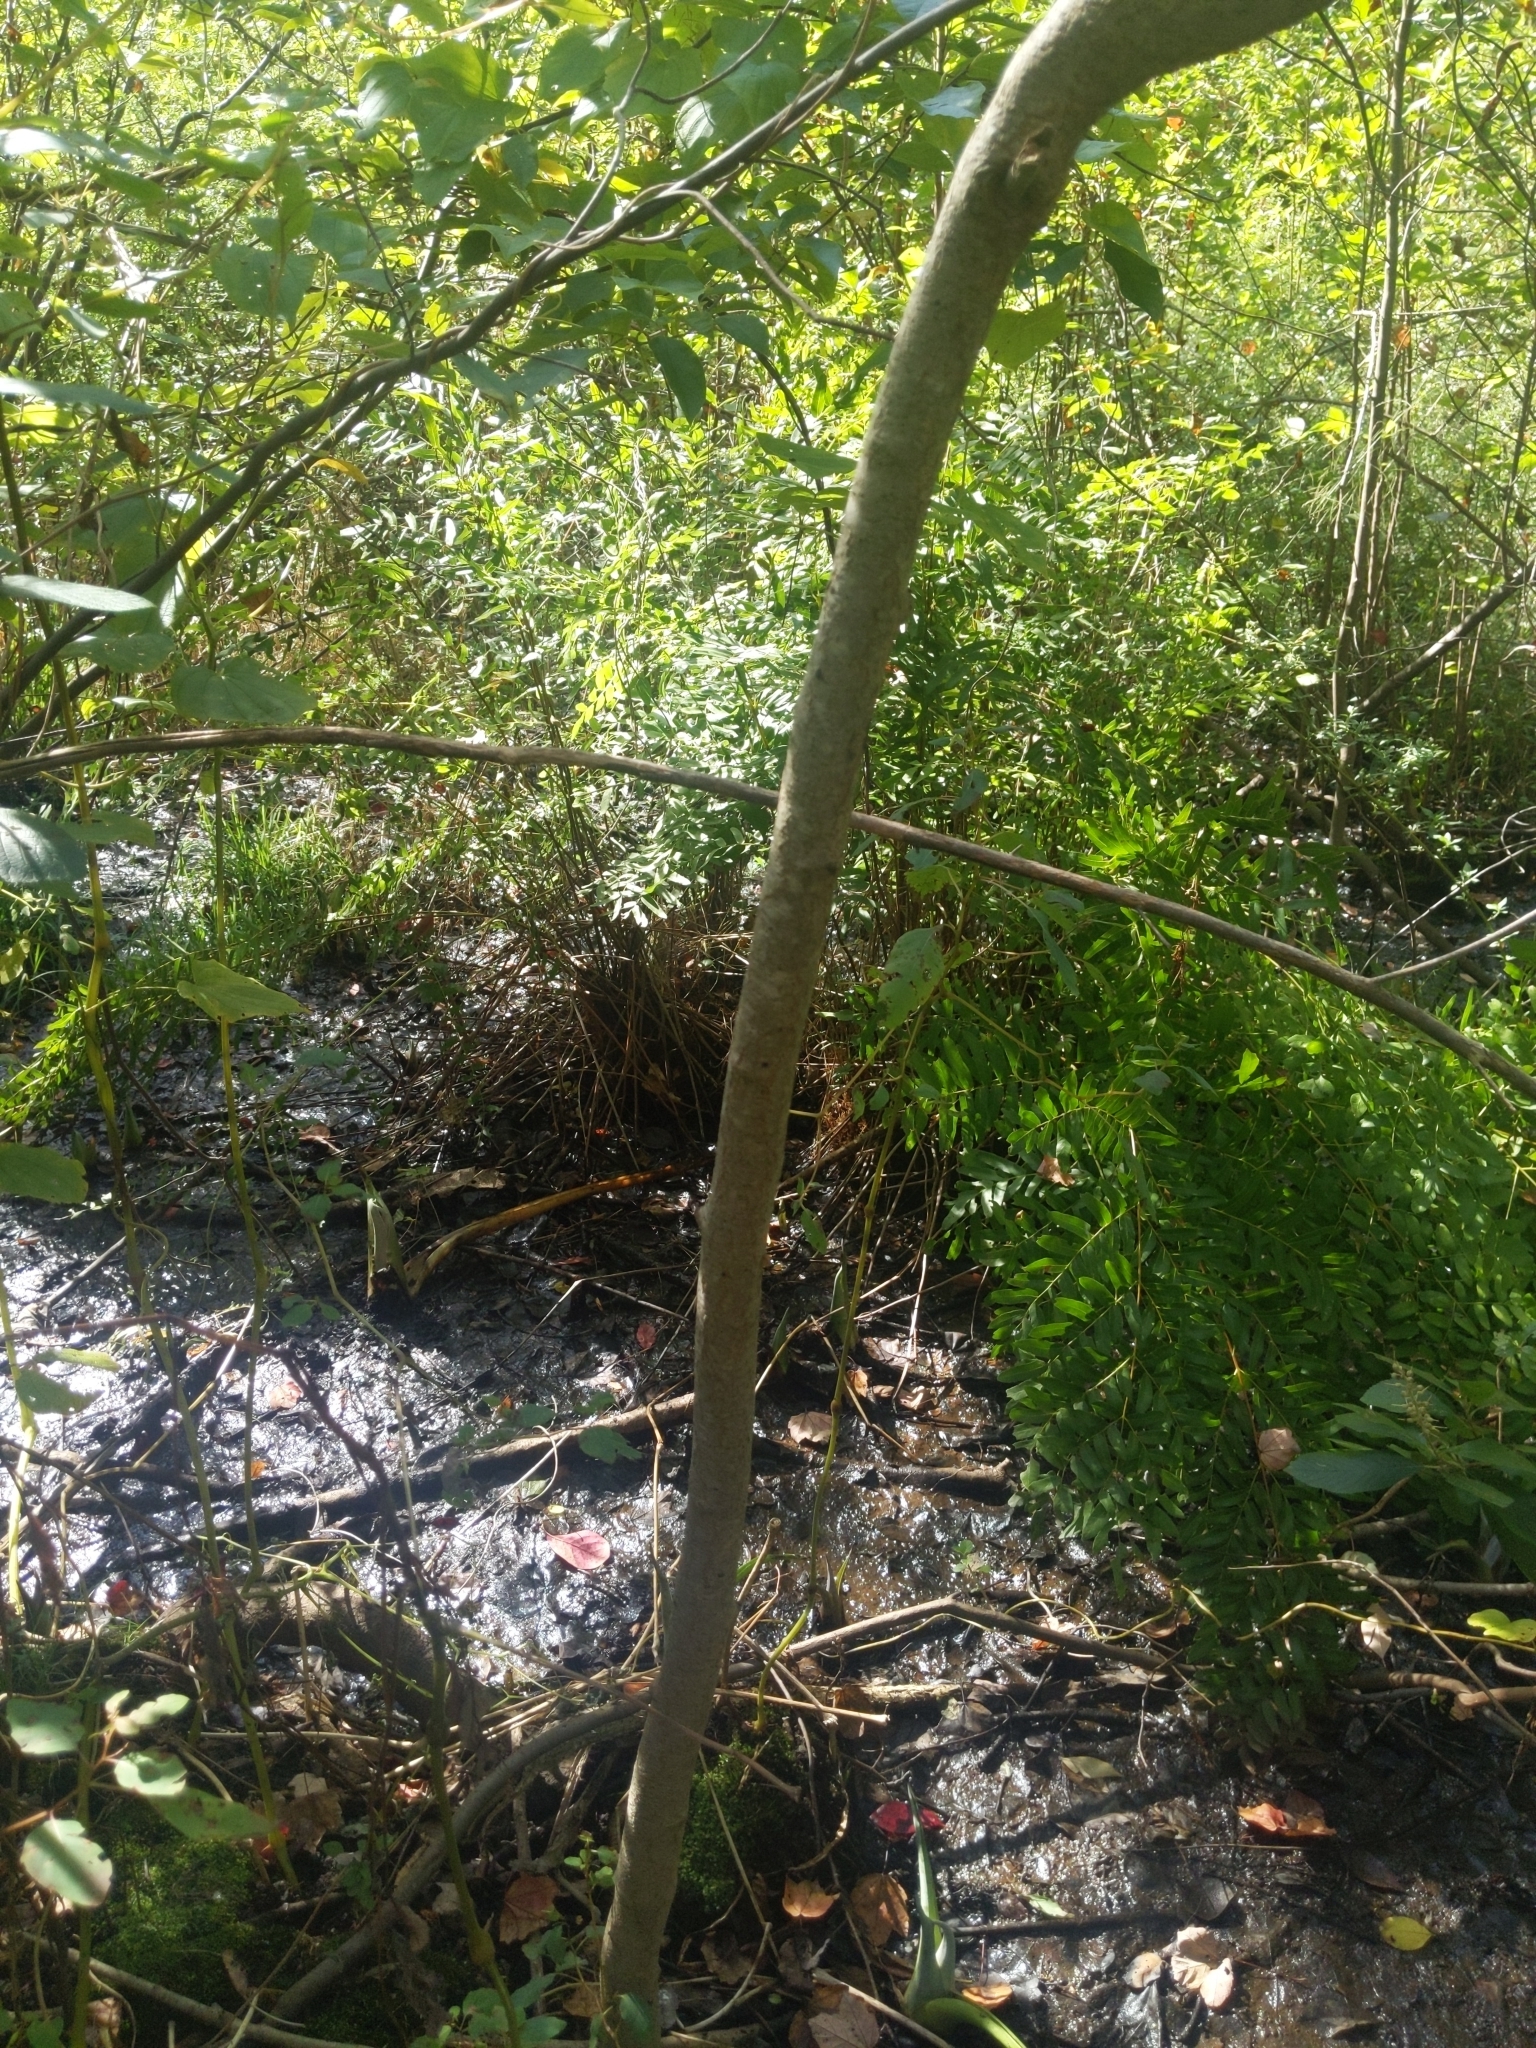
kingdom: Plantae
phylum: Tracheophyta
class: Magnoliopsida
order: Sapindales
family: Anacardiaceae
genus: Toxicodendron
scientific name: Toxicodendron vernix
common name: Poison sumac
